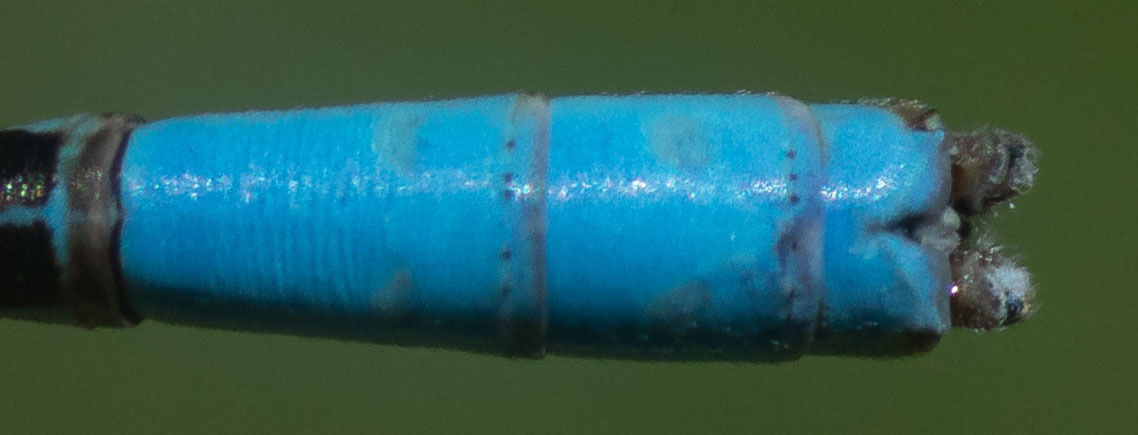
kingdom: Animalia
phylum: Arthropoda
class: Insecta
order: Odonata
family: Coenagrionidae
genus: Argia
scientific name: Argia nahuana
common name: Aztec dancer
